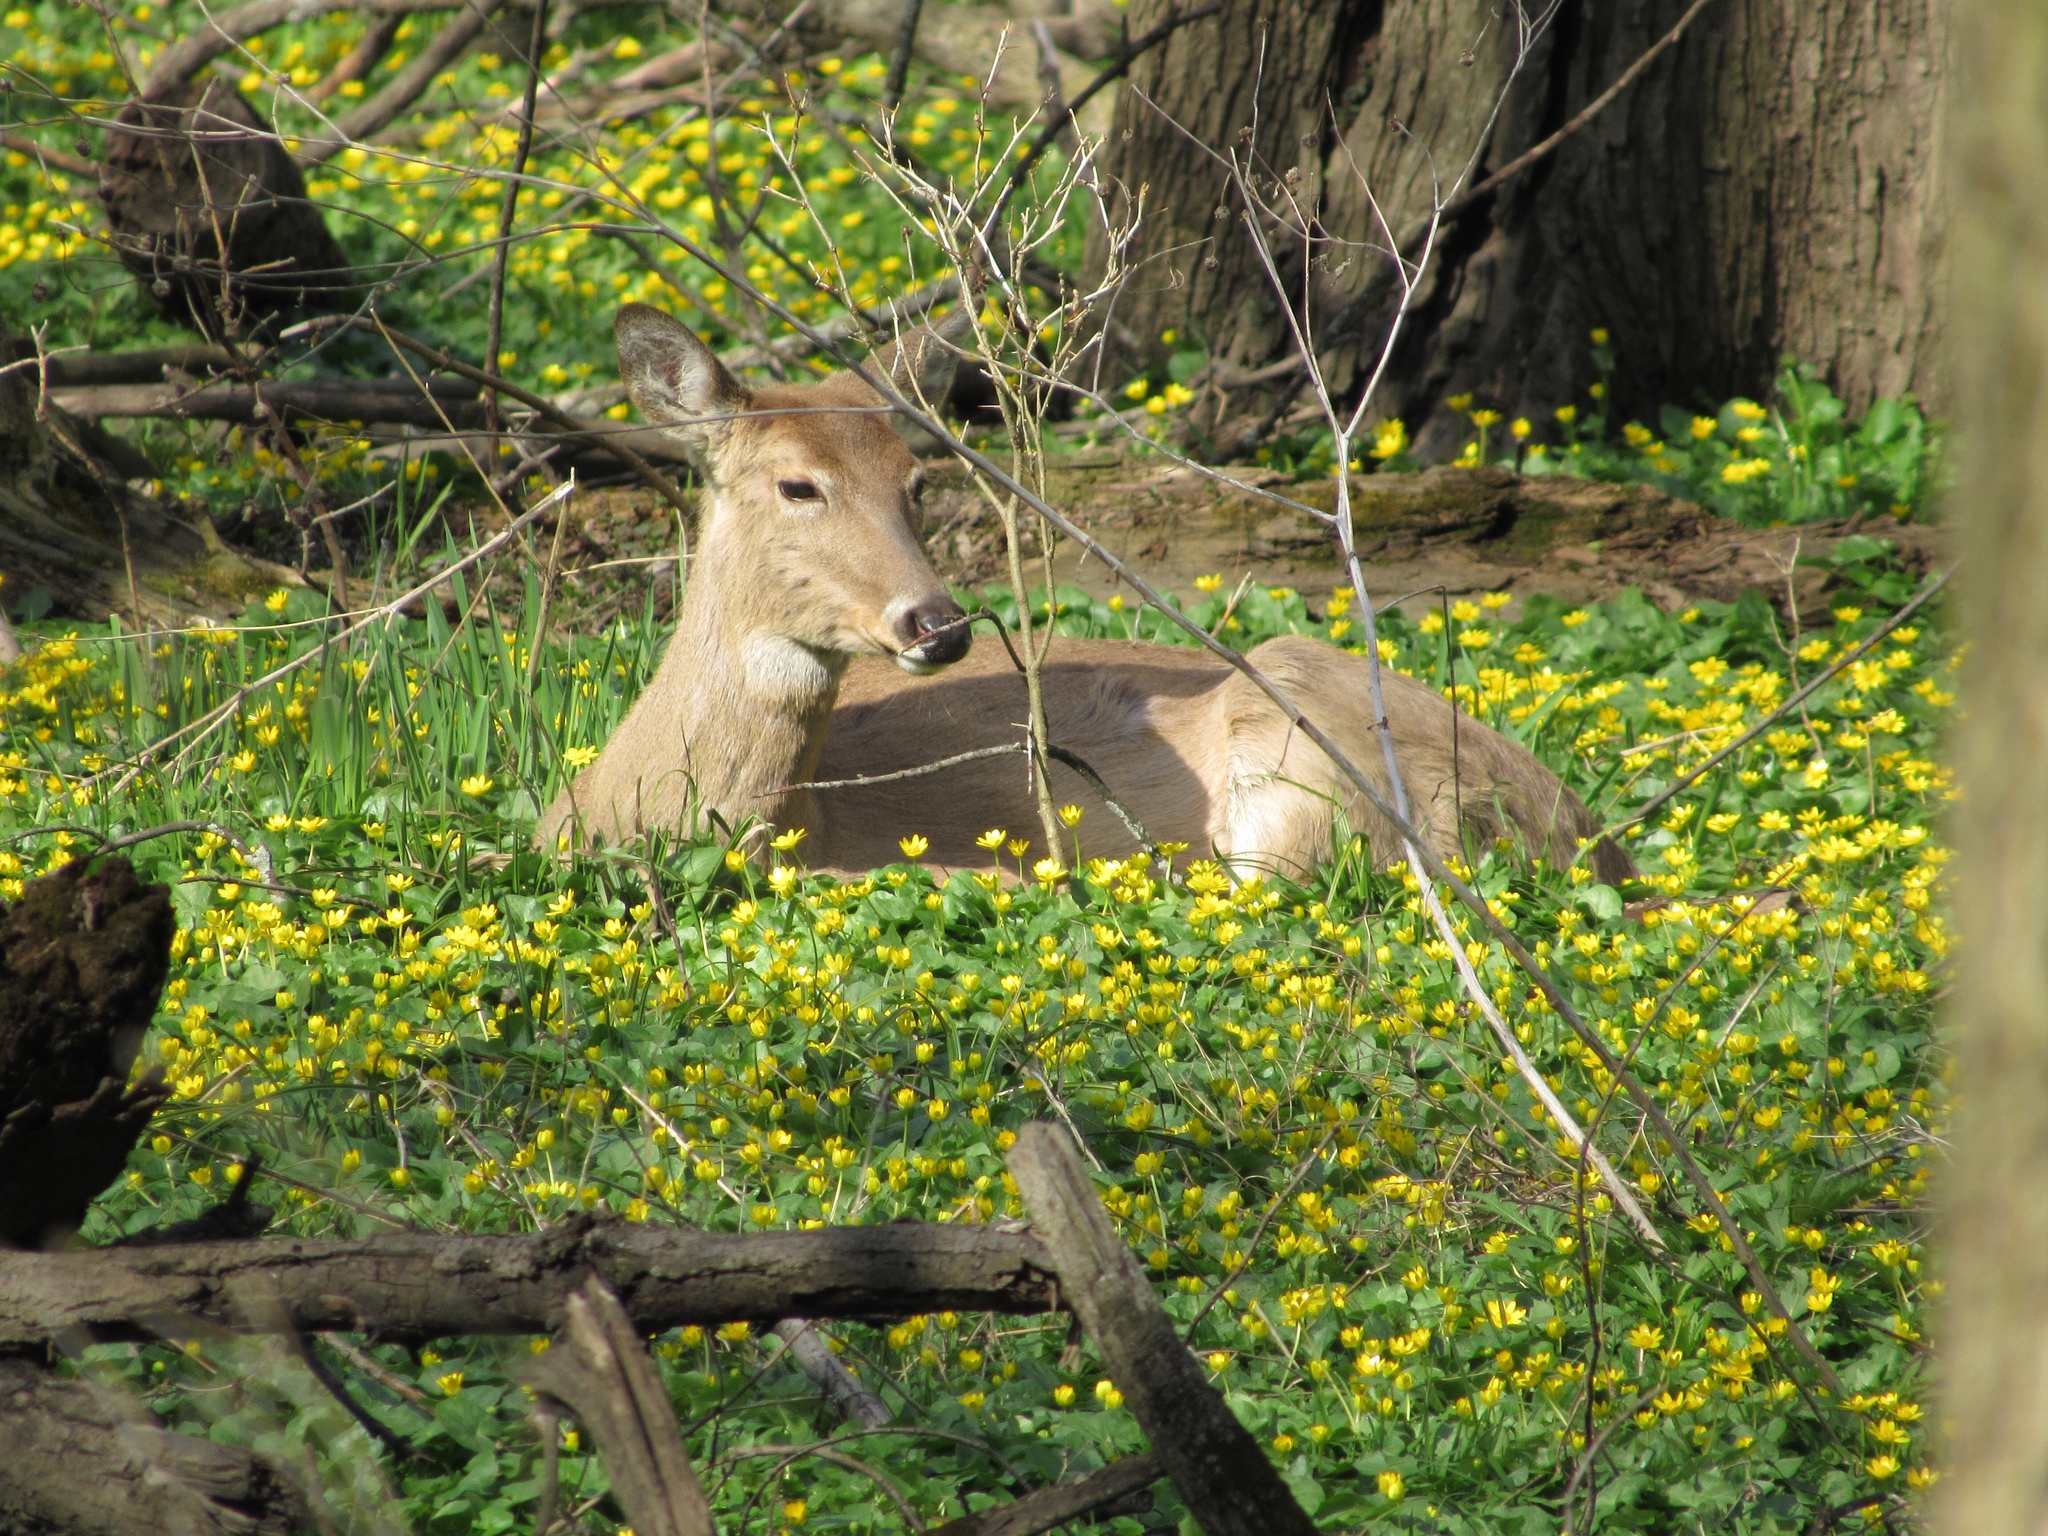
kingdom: Animalia
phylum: Chordata
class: Mammalia
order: Artiodactyla
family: Cervidae
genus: Odocoileus
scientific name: Odocoileus virginianus
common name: White-tailed deer
